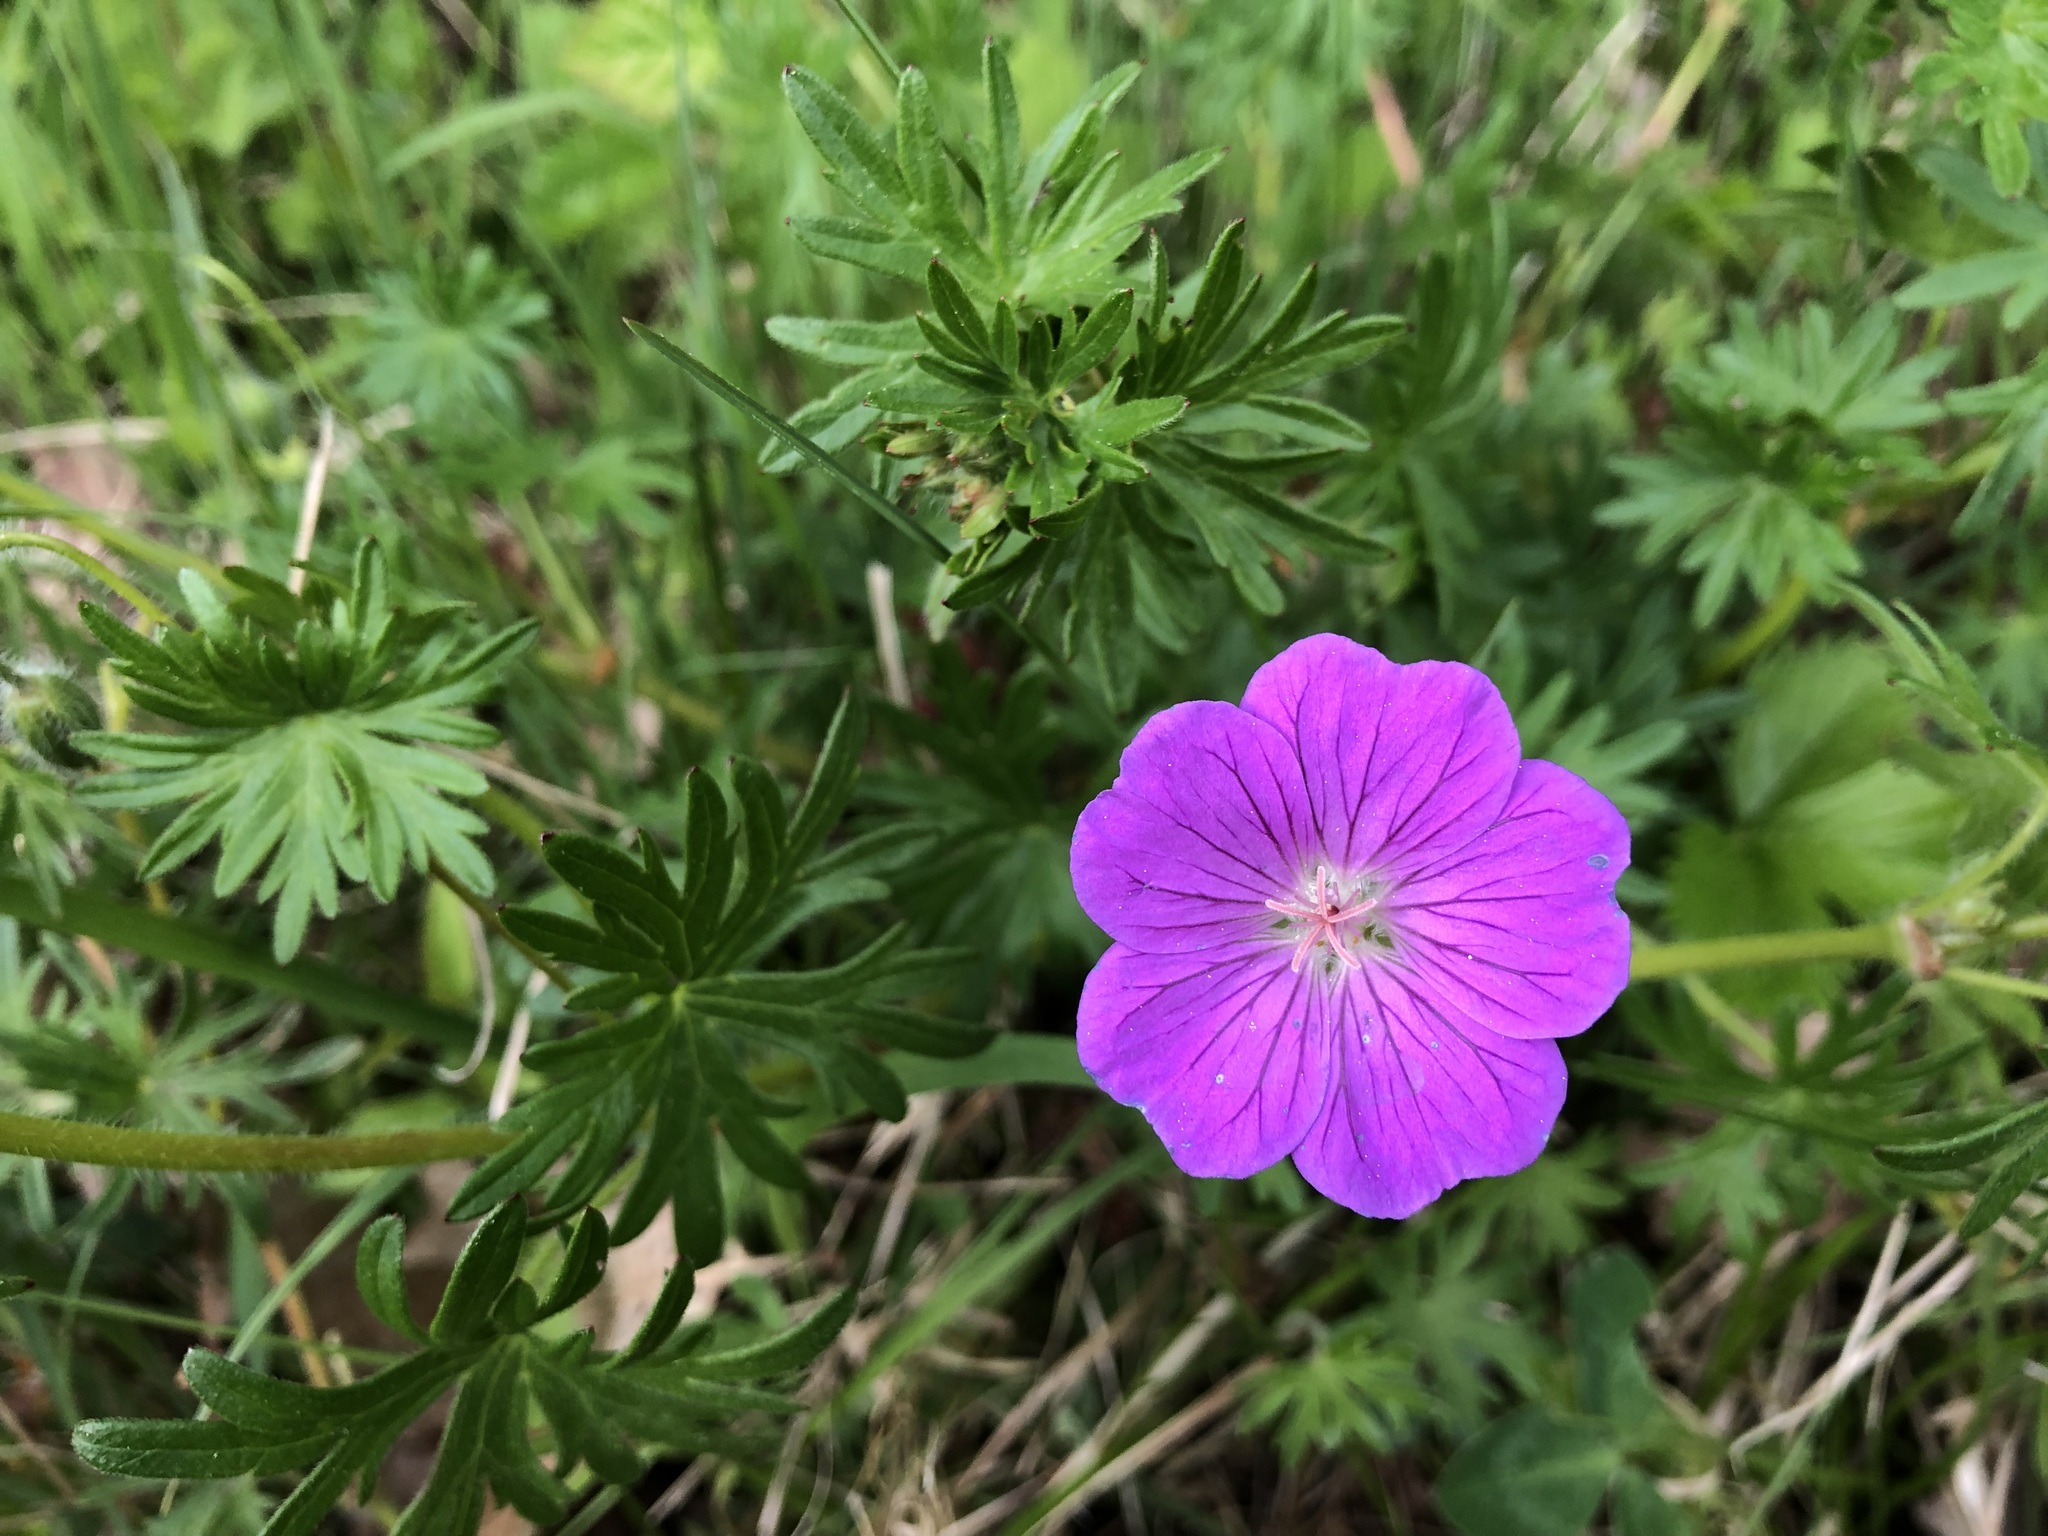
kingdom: Plantae
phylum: Tracheophyta
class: Magnoliopsida
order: Geraniales
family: Geraniaceae
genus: Geranium
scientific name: Geranium sanguineum
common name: Bloody crane's-bill
